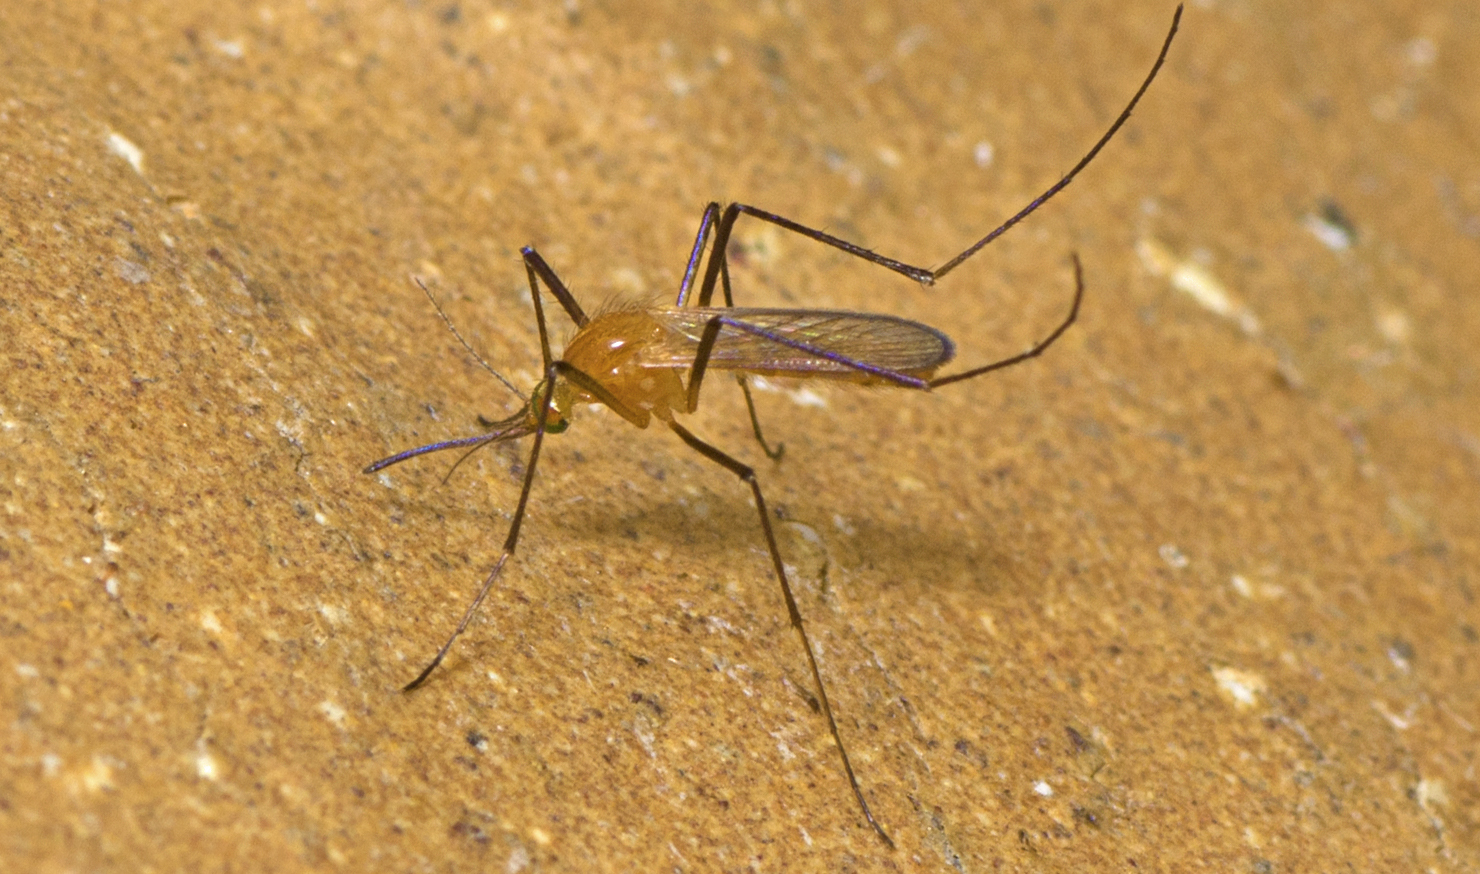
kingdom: Animalia
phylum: Arthropoda
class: Insecta
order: Diptera
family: Culicidae
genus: Coquillettidia
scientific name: Coquillettidia xanthogaster
